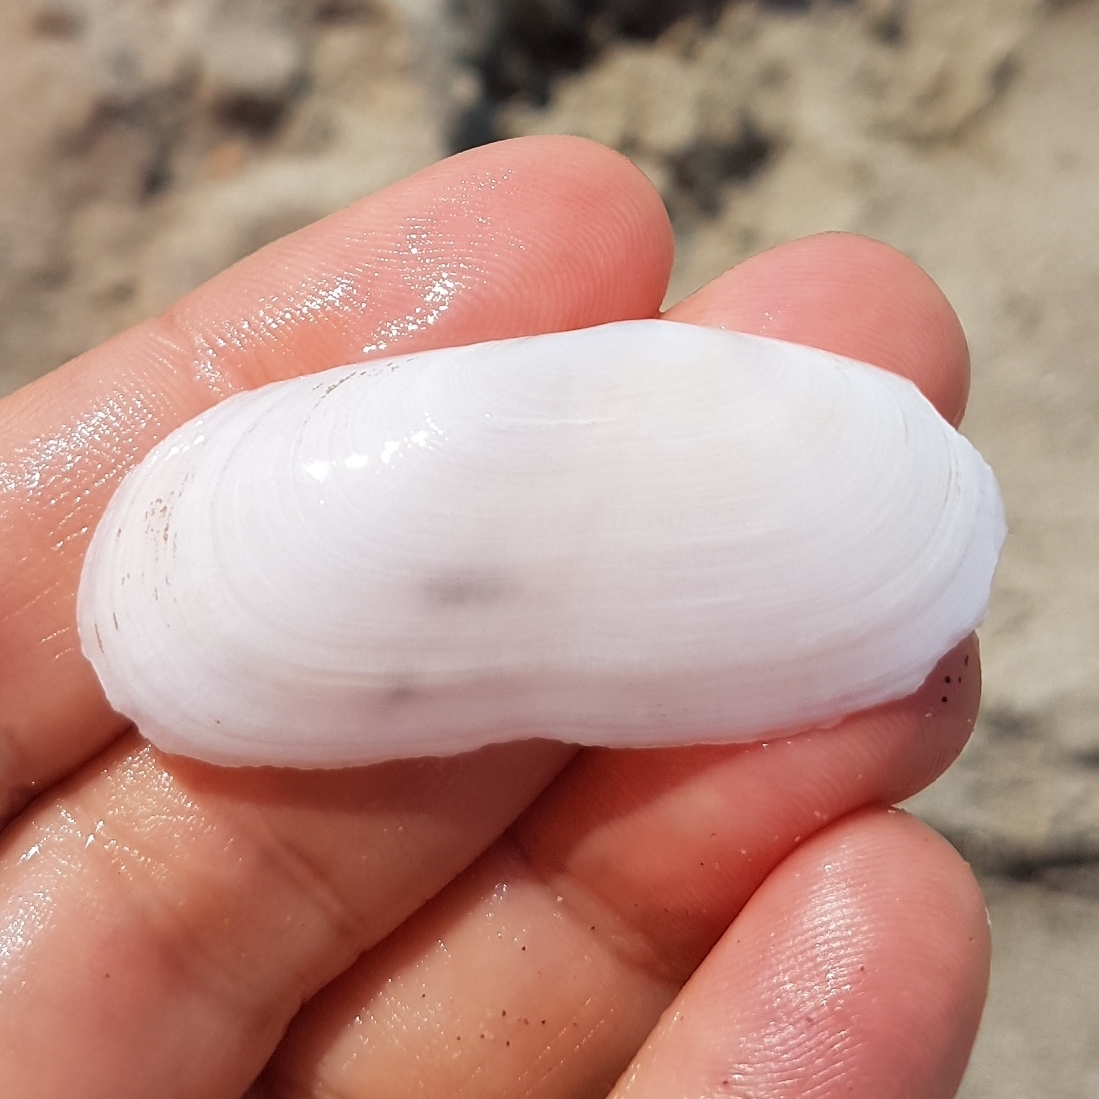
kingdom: Animalia
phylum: Mollusca
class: Bivalvia
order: Cardiida
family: Solecurtidae
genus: Azorinus
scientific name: Azorinus chamasolen
